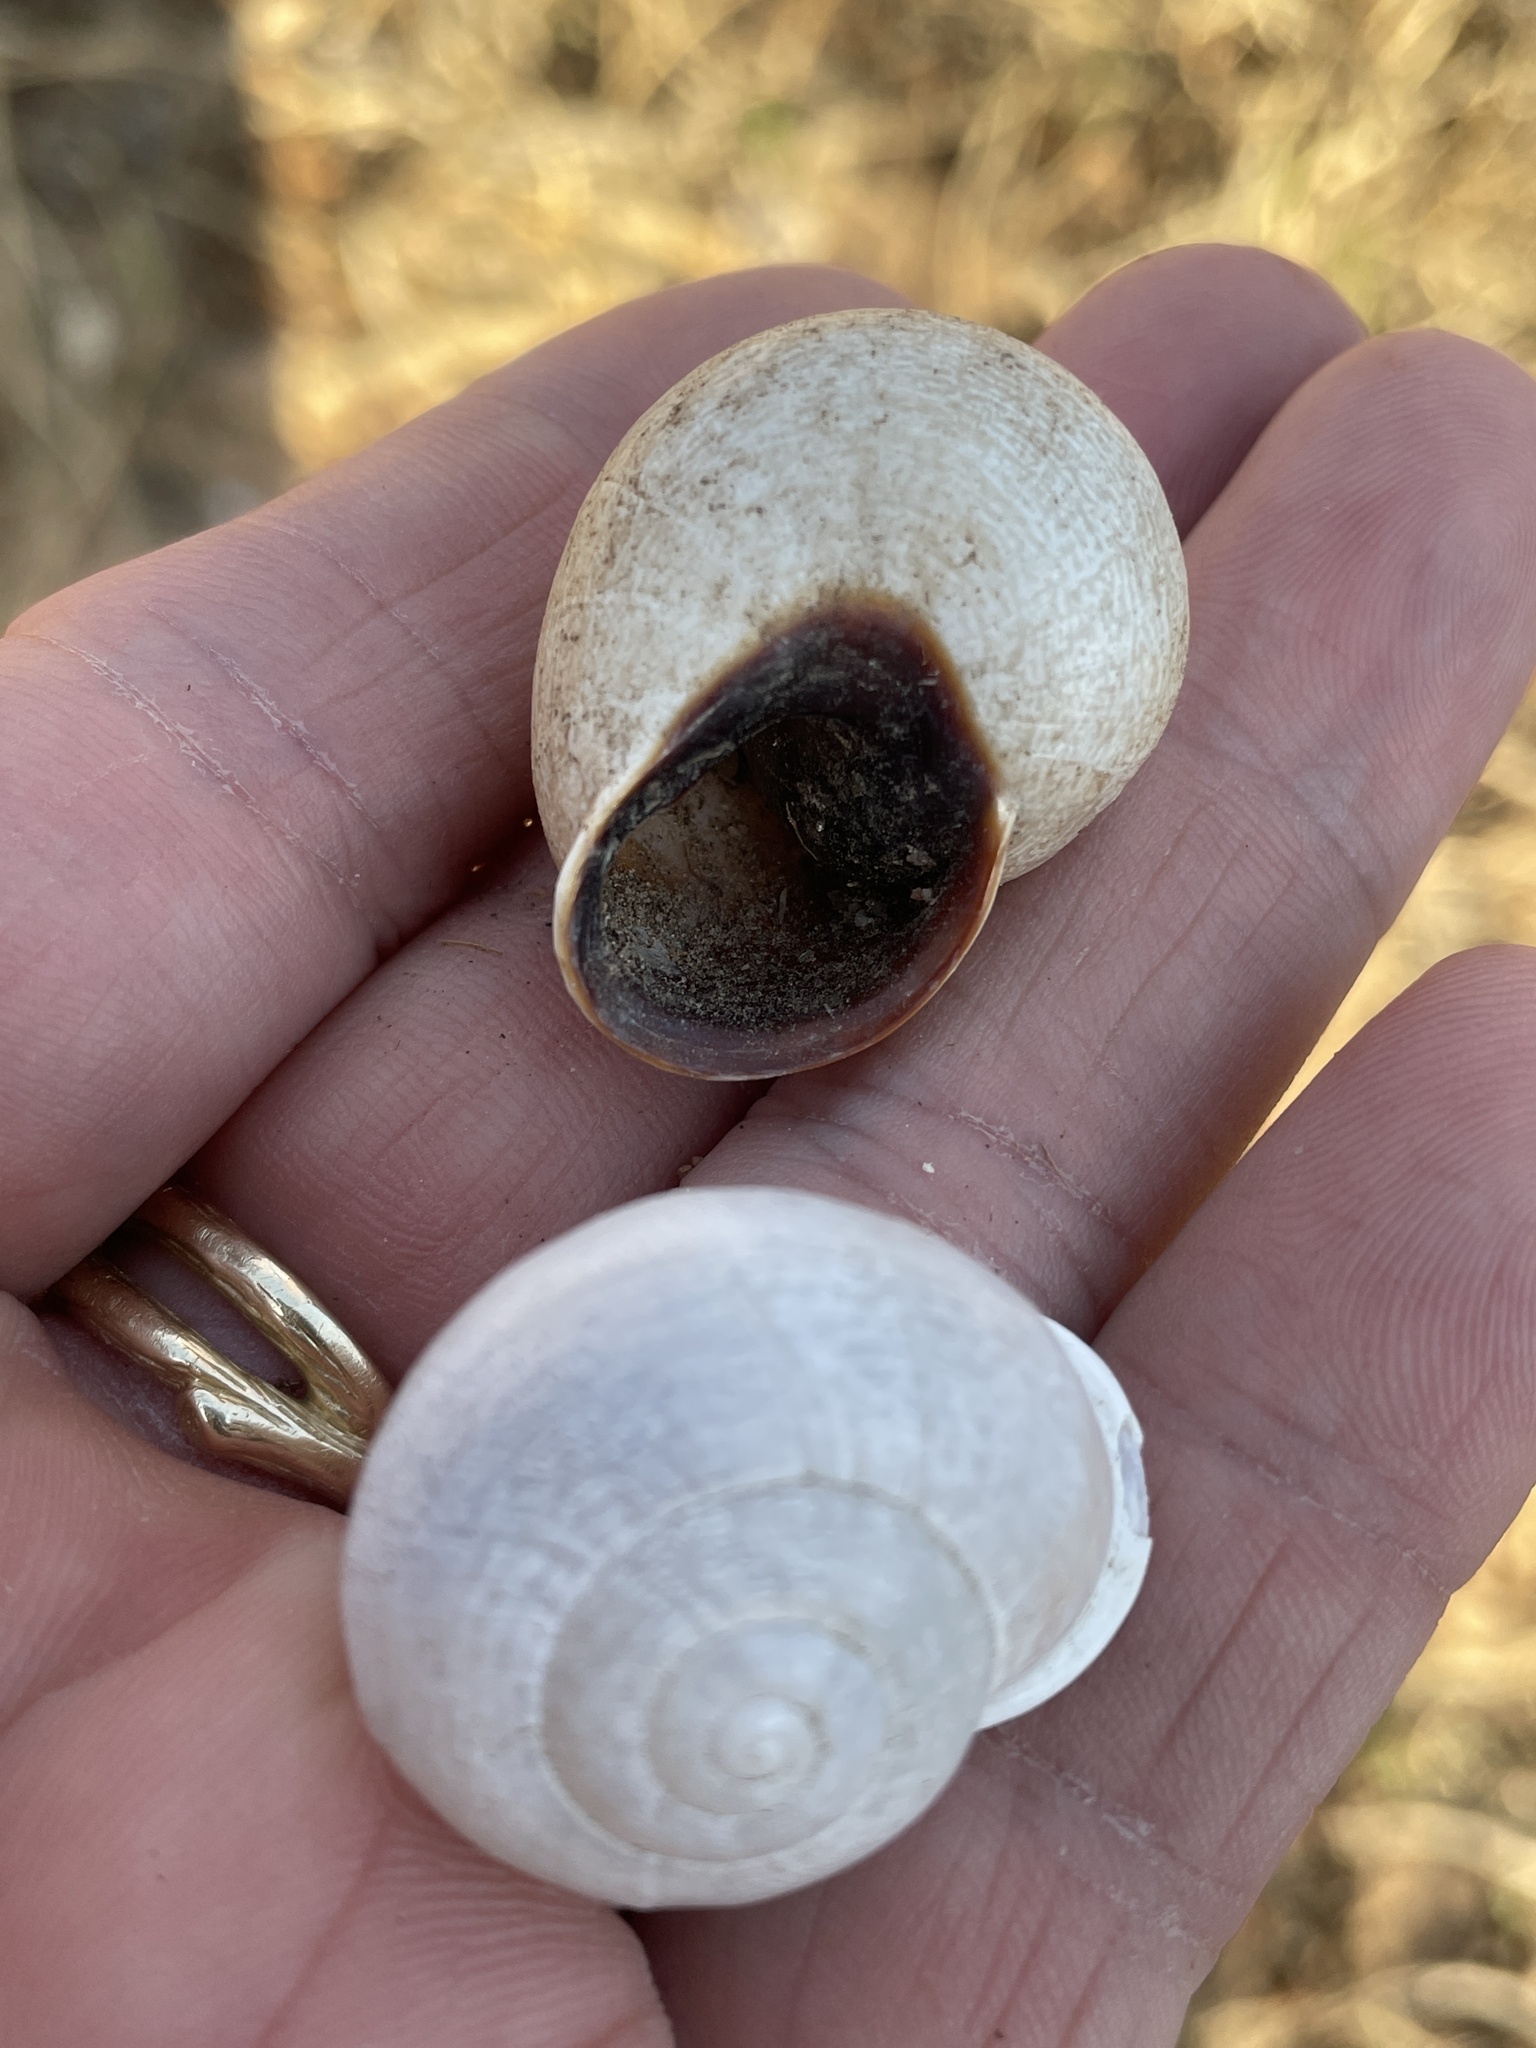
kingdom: Animalia
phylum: Mollusca
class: Gastropoda
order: Stylommatophora
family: Helicidae
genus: Otala
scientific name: Otala lactea
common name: Milk snail
